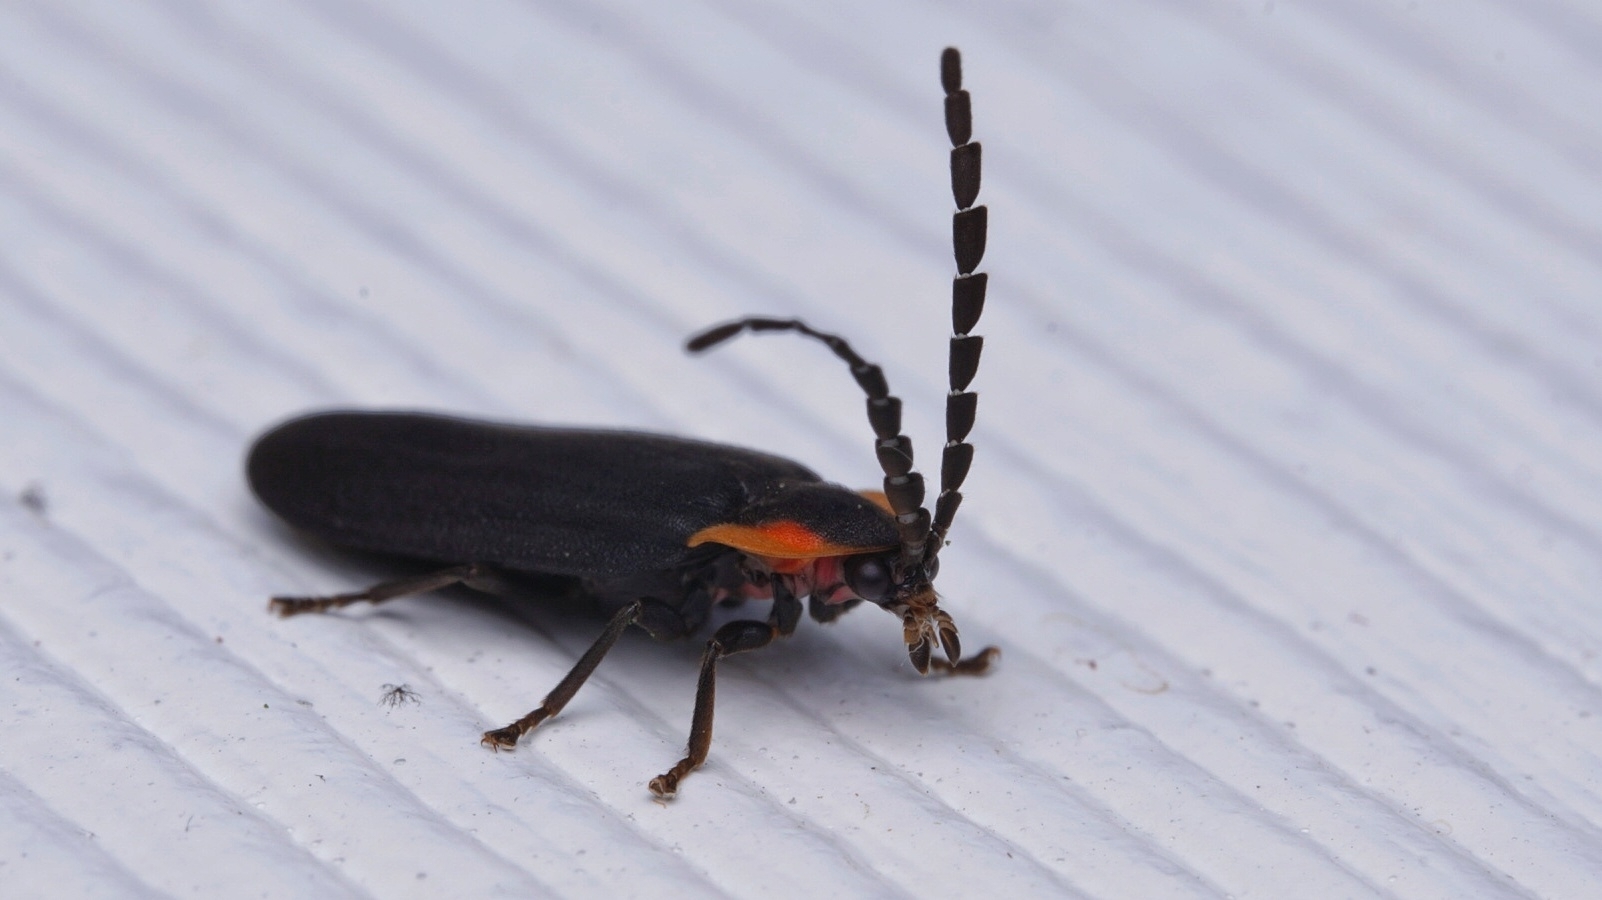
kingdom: Animalia
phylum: Arthropoda
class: Insecta
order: Coleoptera
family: Lampyridae
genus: Lucidota
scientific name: Lucidota atra
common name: Black firefly
